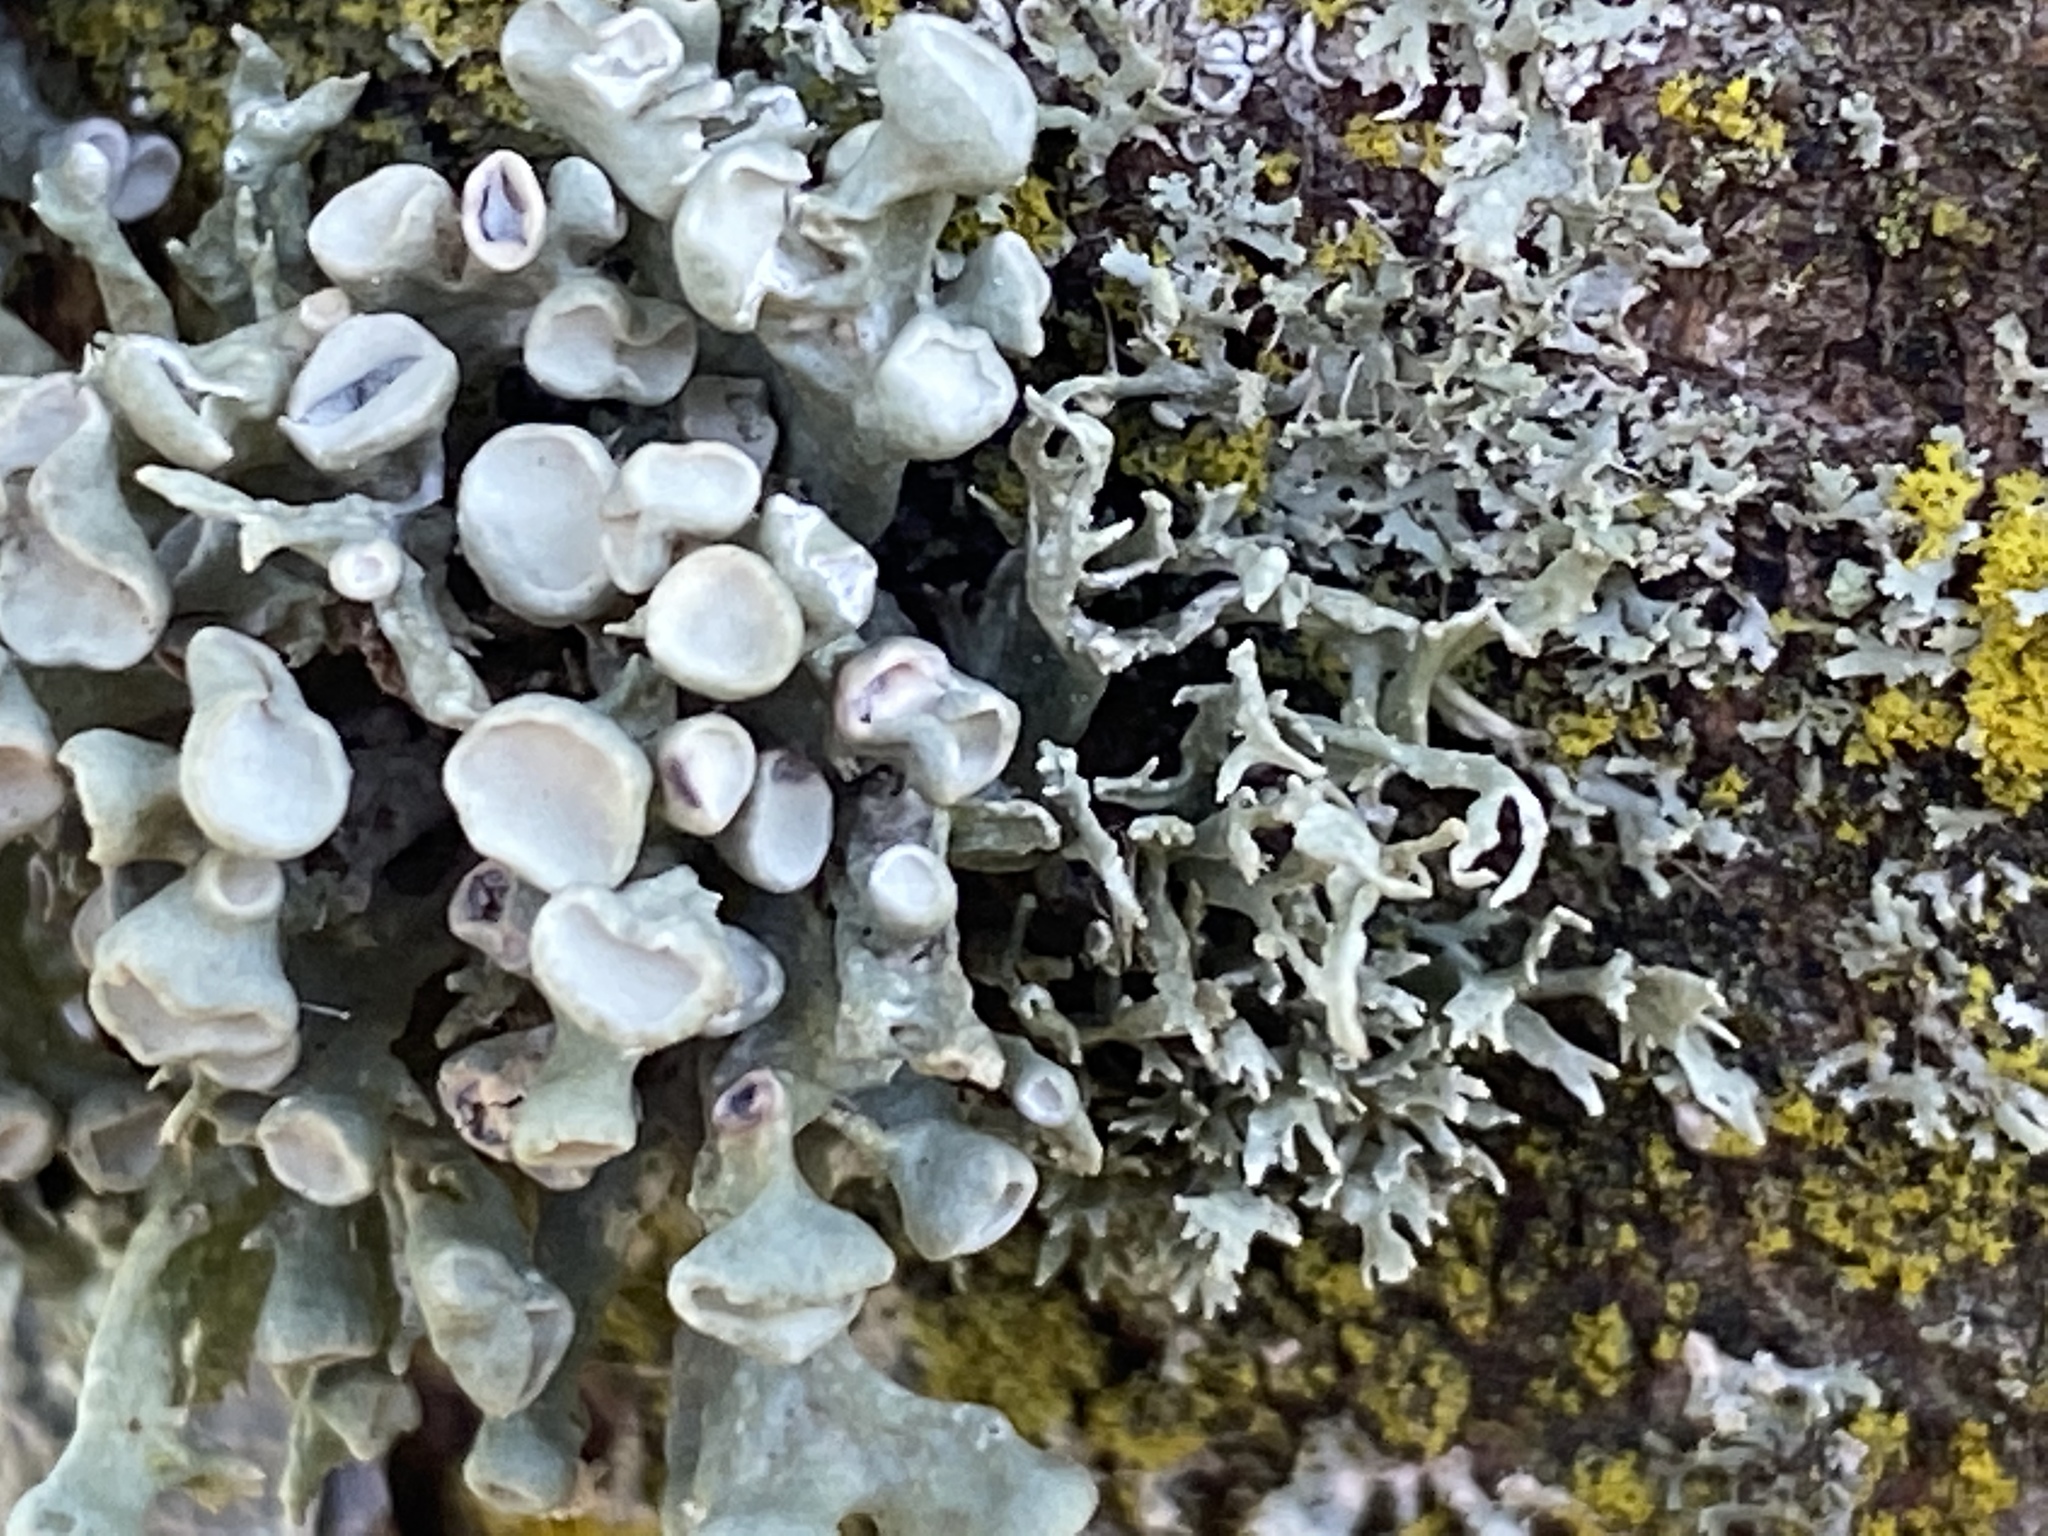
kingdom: Fungi
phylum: Ascomycota
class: Lecanoromycetes
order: Lecanorales
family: Ramalinaceae
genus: Ramalina
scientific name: Ramalina fastigiata
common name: Dotted ribbon lichen
